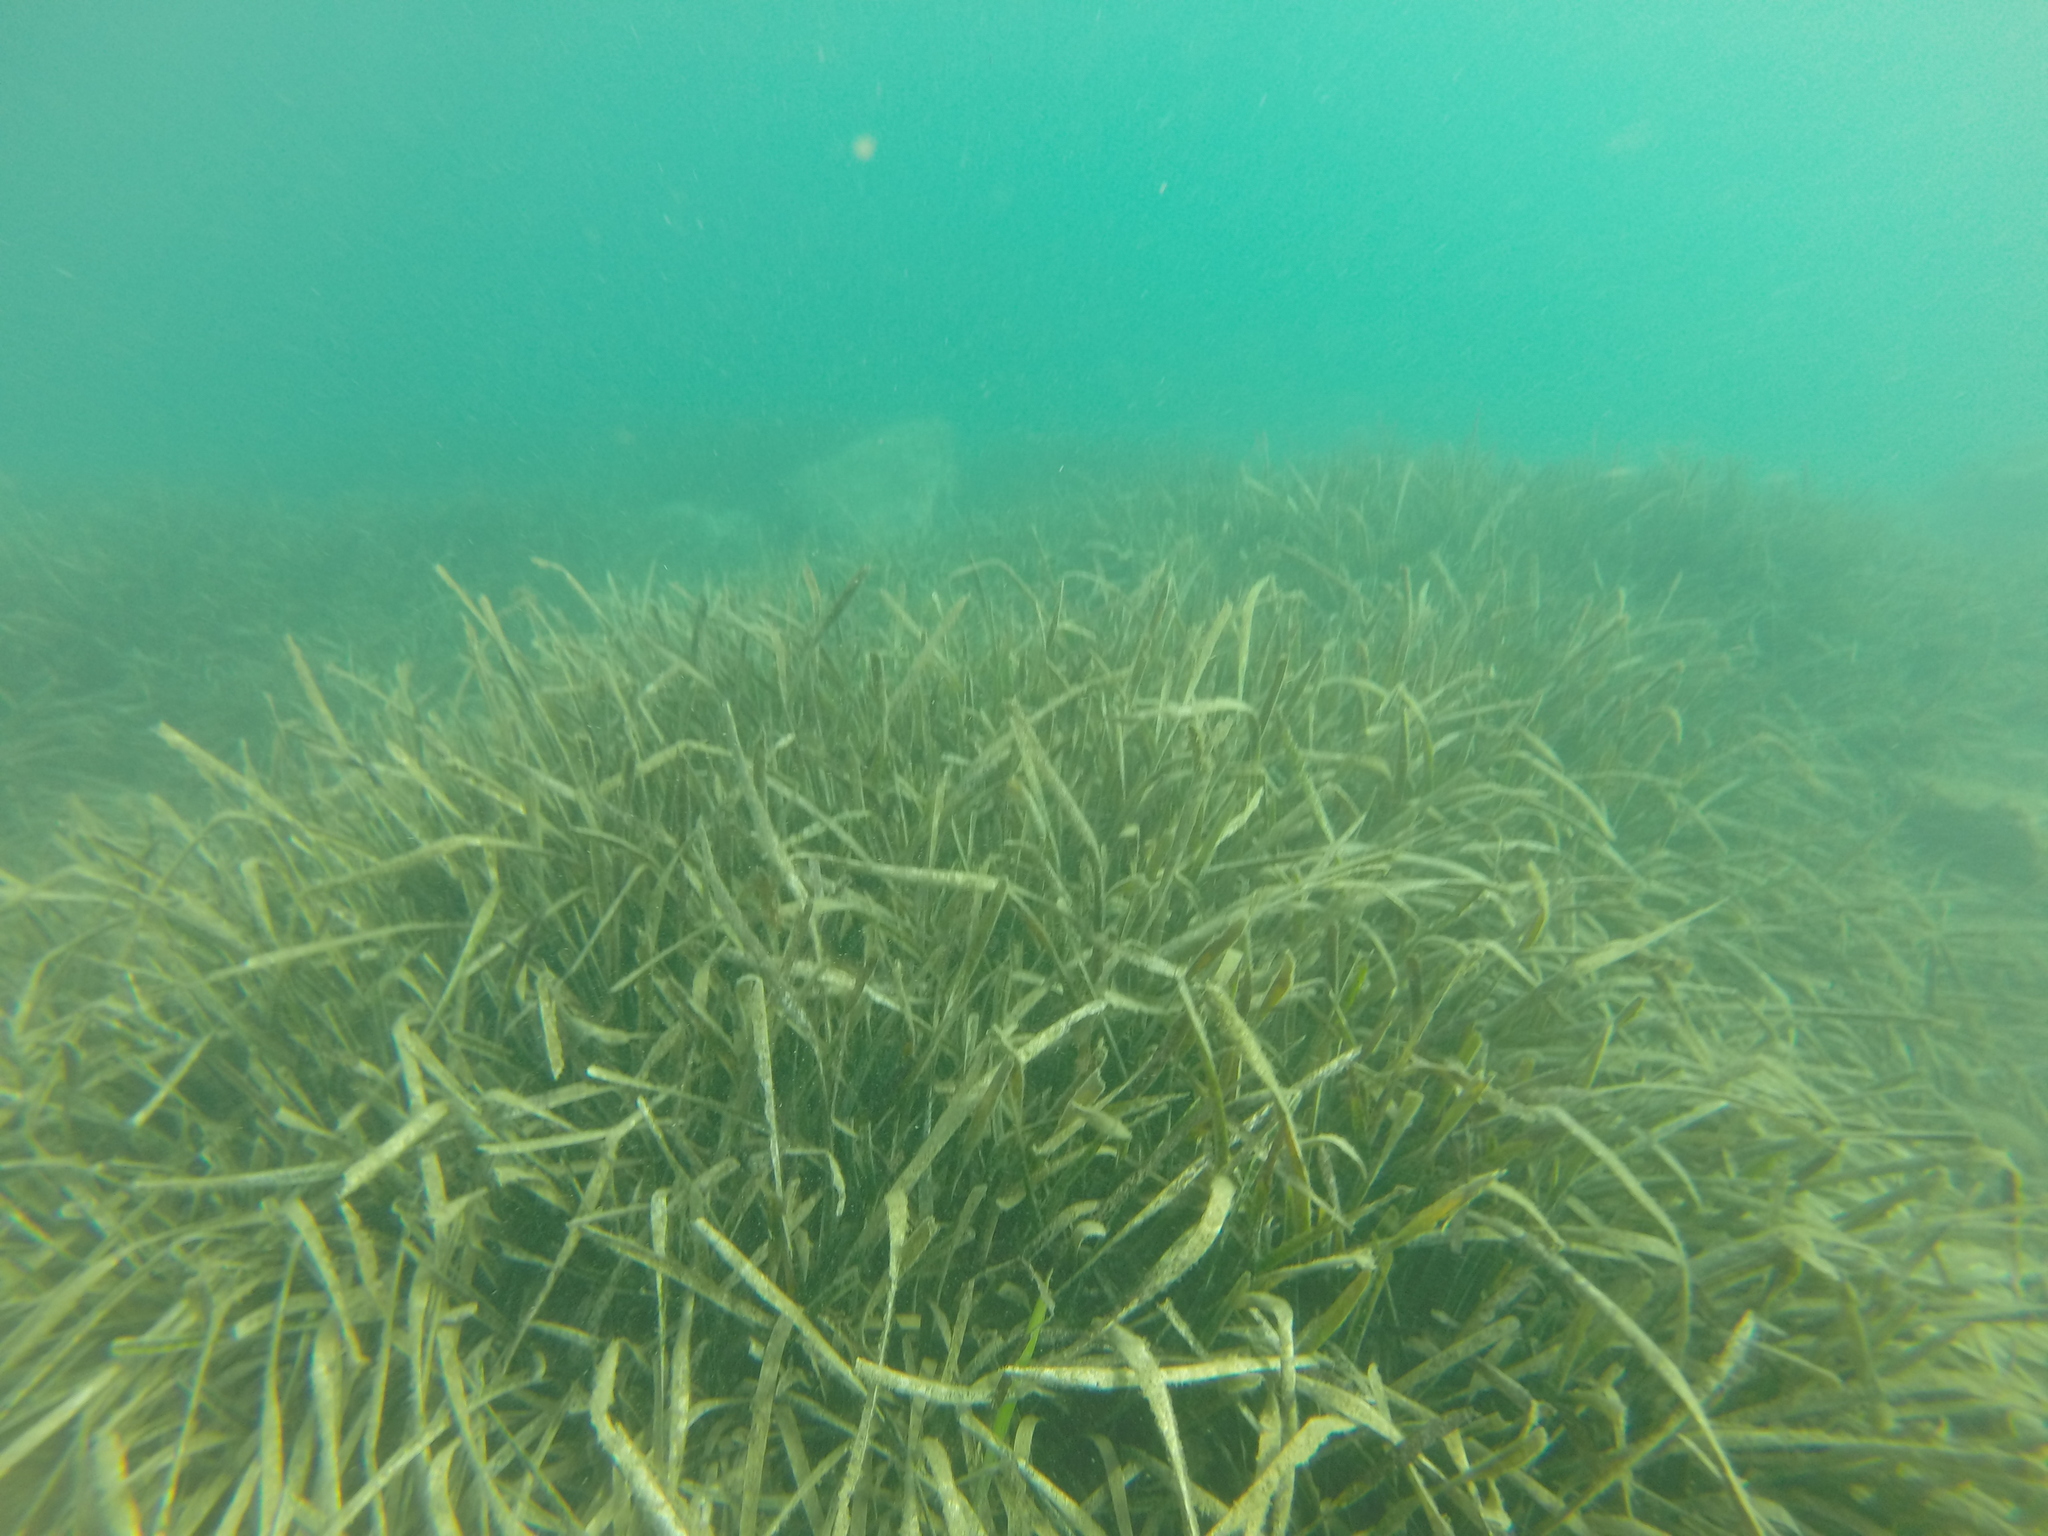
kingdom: Plantae
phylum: Tracheophyta
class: Liliopsida
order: Alismatales
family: Posidoniaceae
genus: Posidonia
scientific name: Posidonia oceanica
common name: Mediterranean tapeweed
